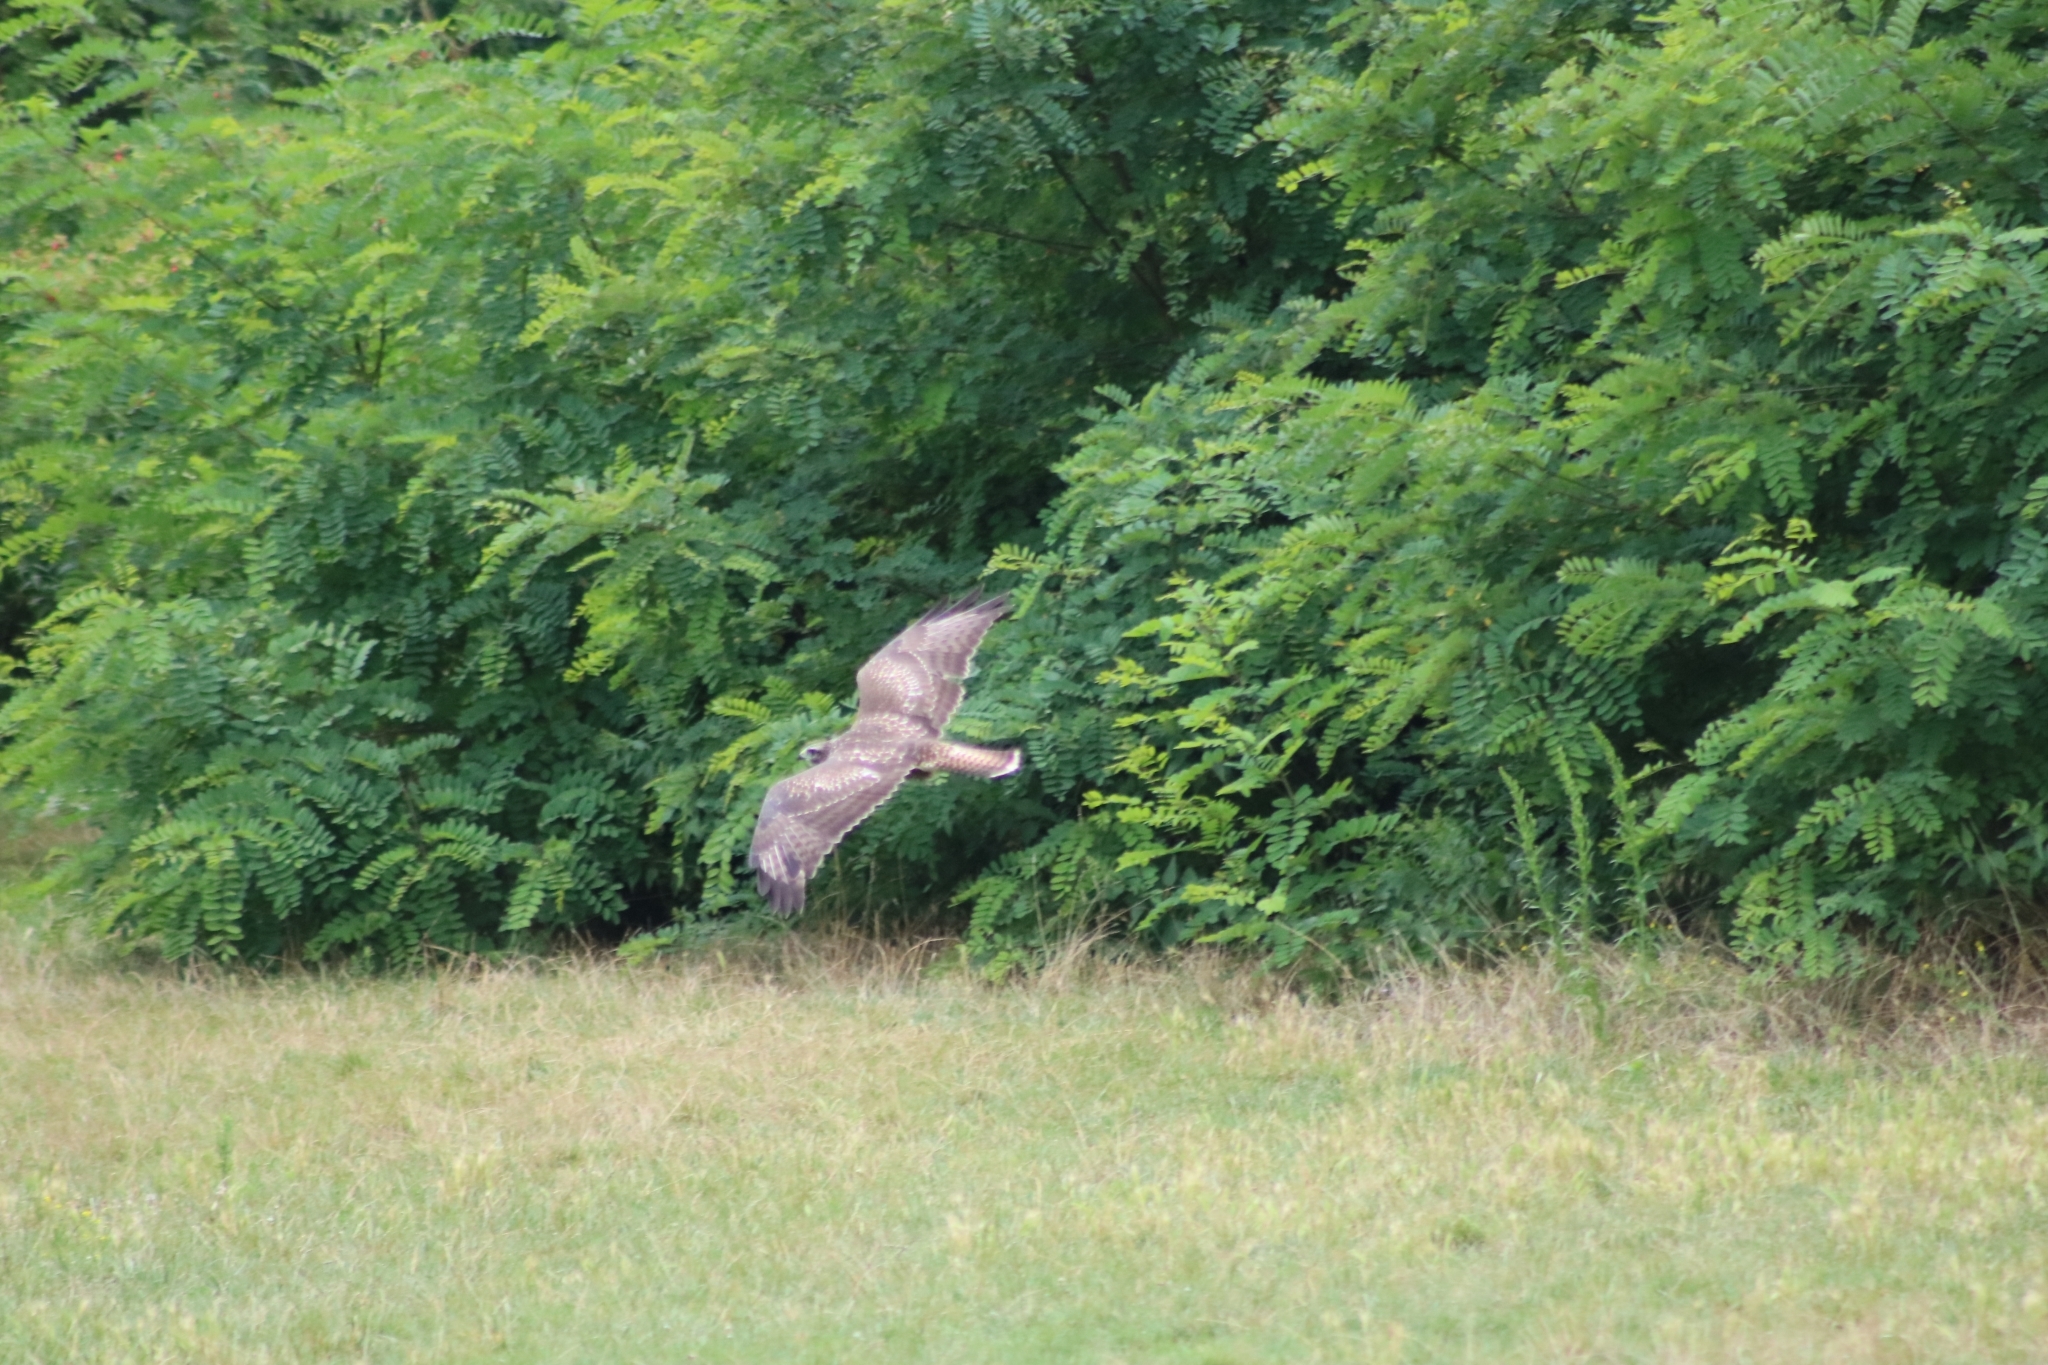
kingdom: Animalia
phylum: Chordata
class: Aves
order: Accipitriformes
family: Accipitridae
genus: Buteo
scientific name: Buteo buteo
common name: Common buzzard
